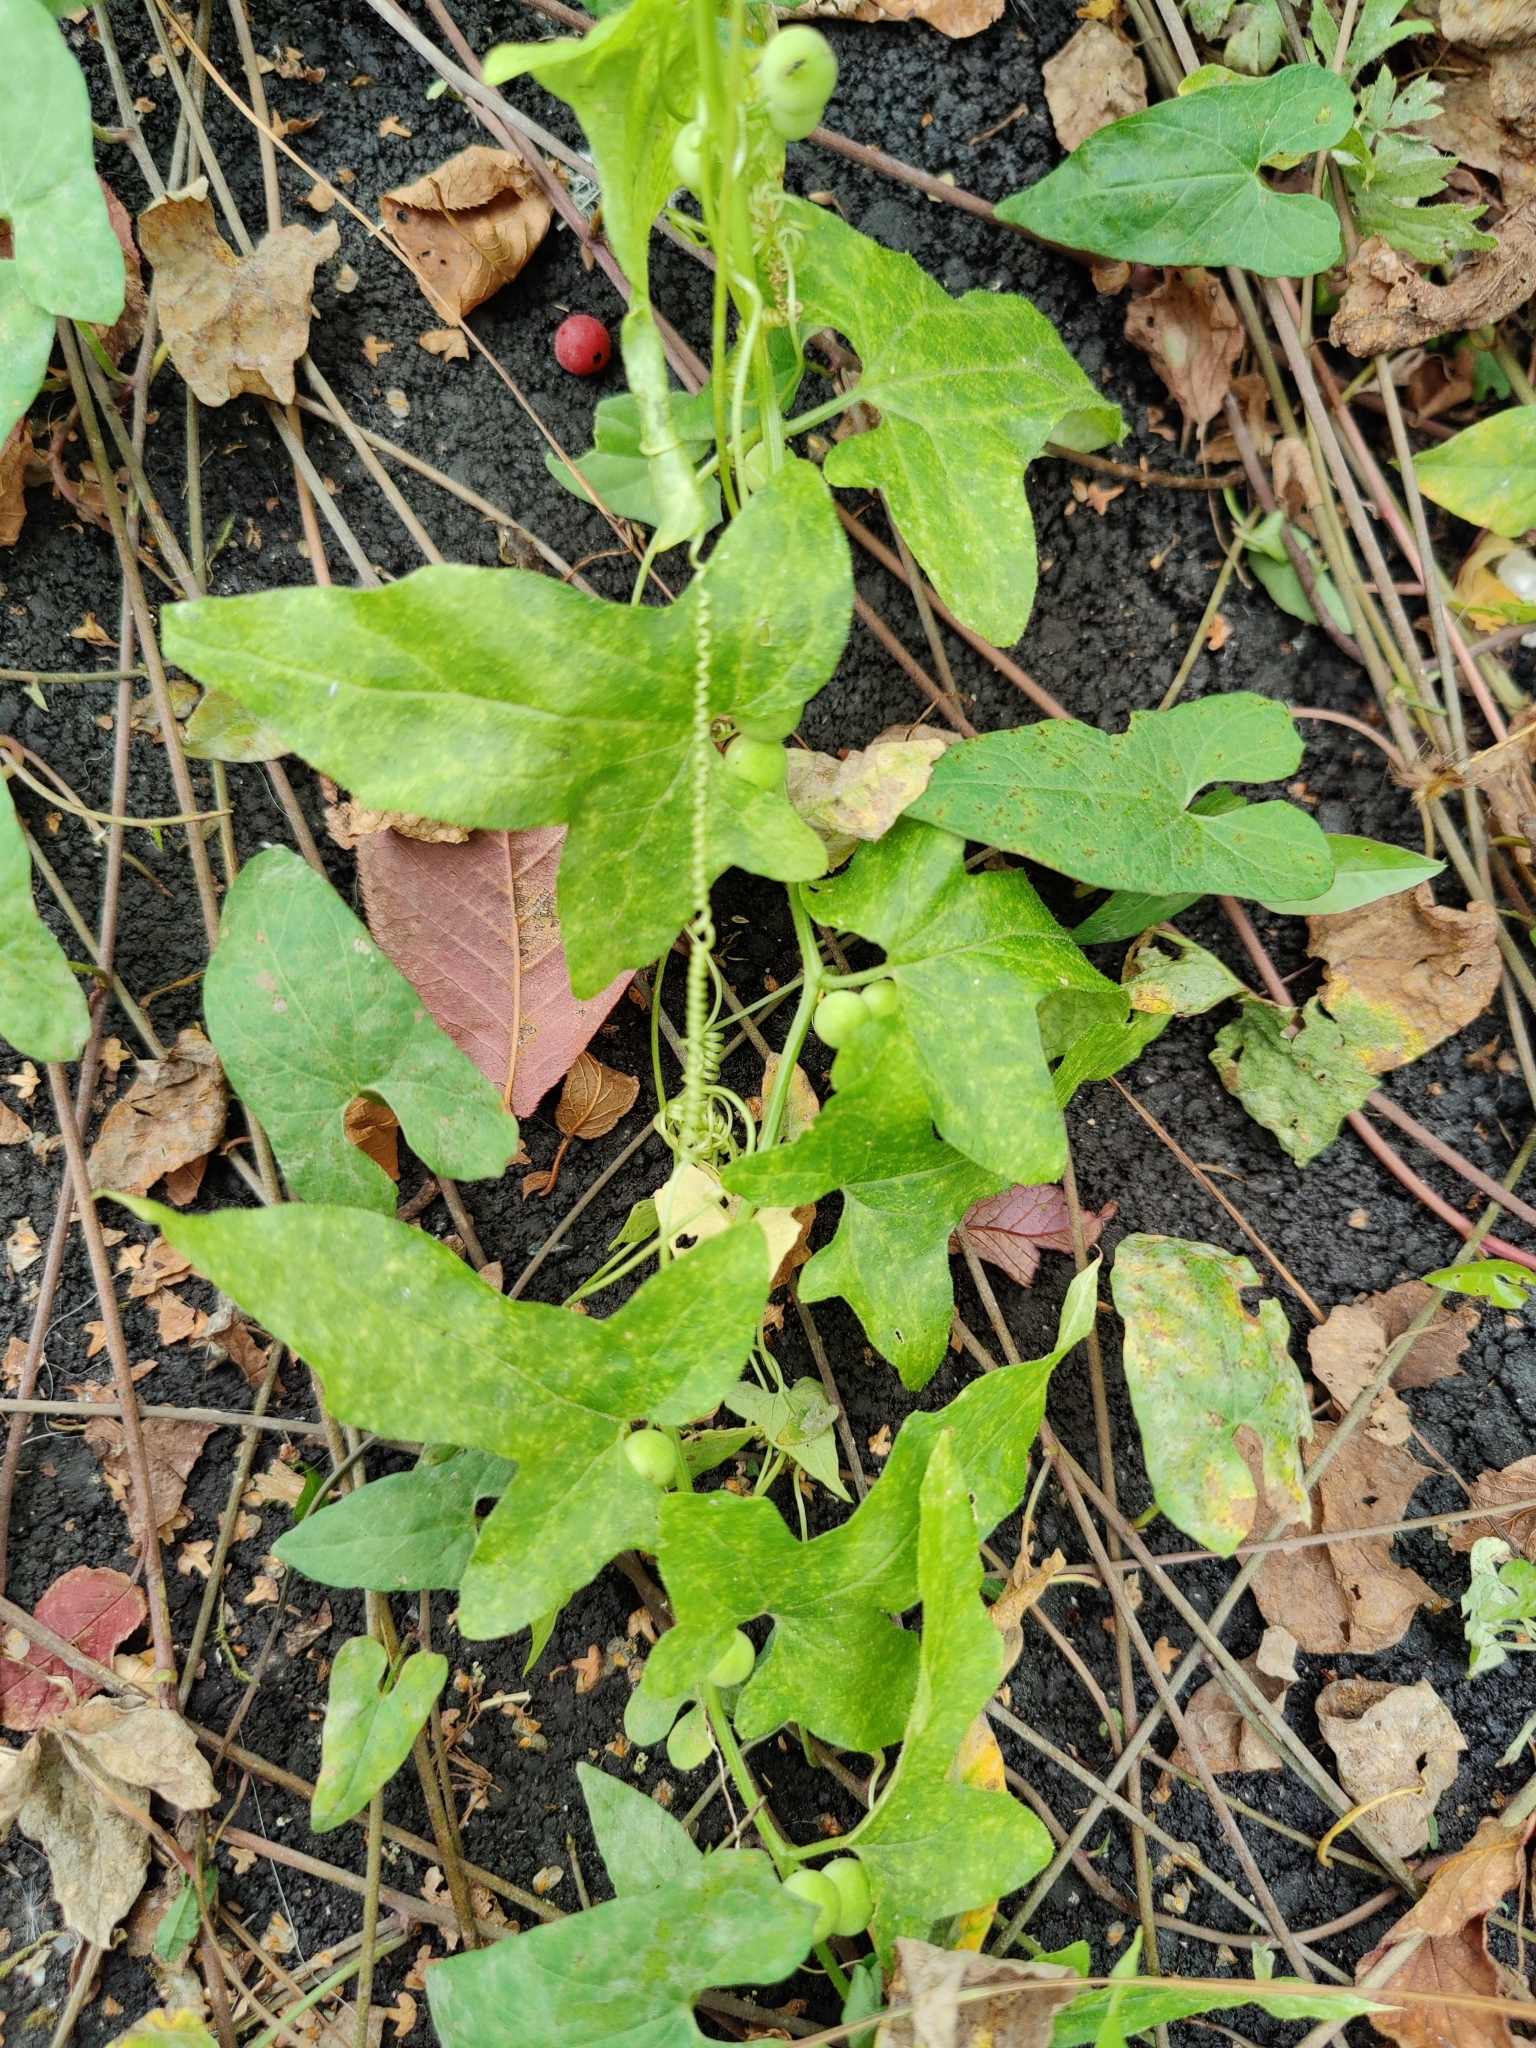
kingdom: Plantae
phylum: Tracheophyta
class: Magnoliopsida
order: Cucurbitales
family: Cucurbitaceae
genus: Bryonia
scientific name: Bryonia cretica
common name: Cretan bryony
